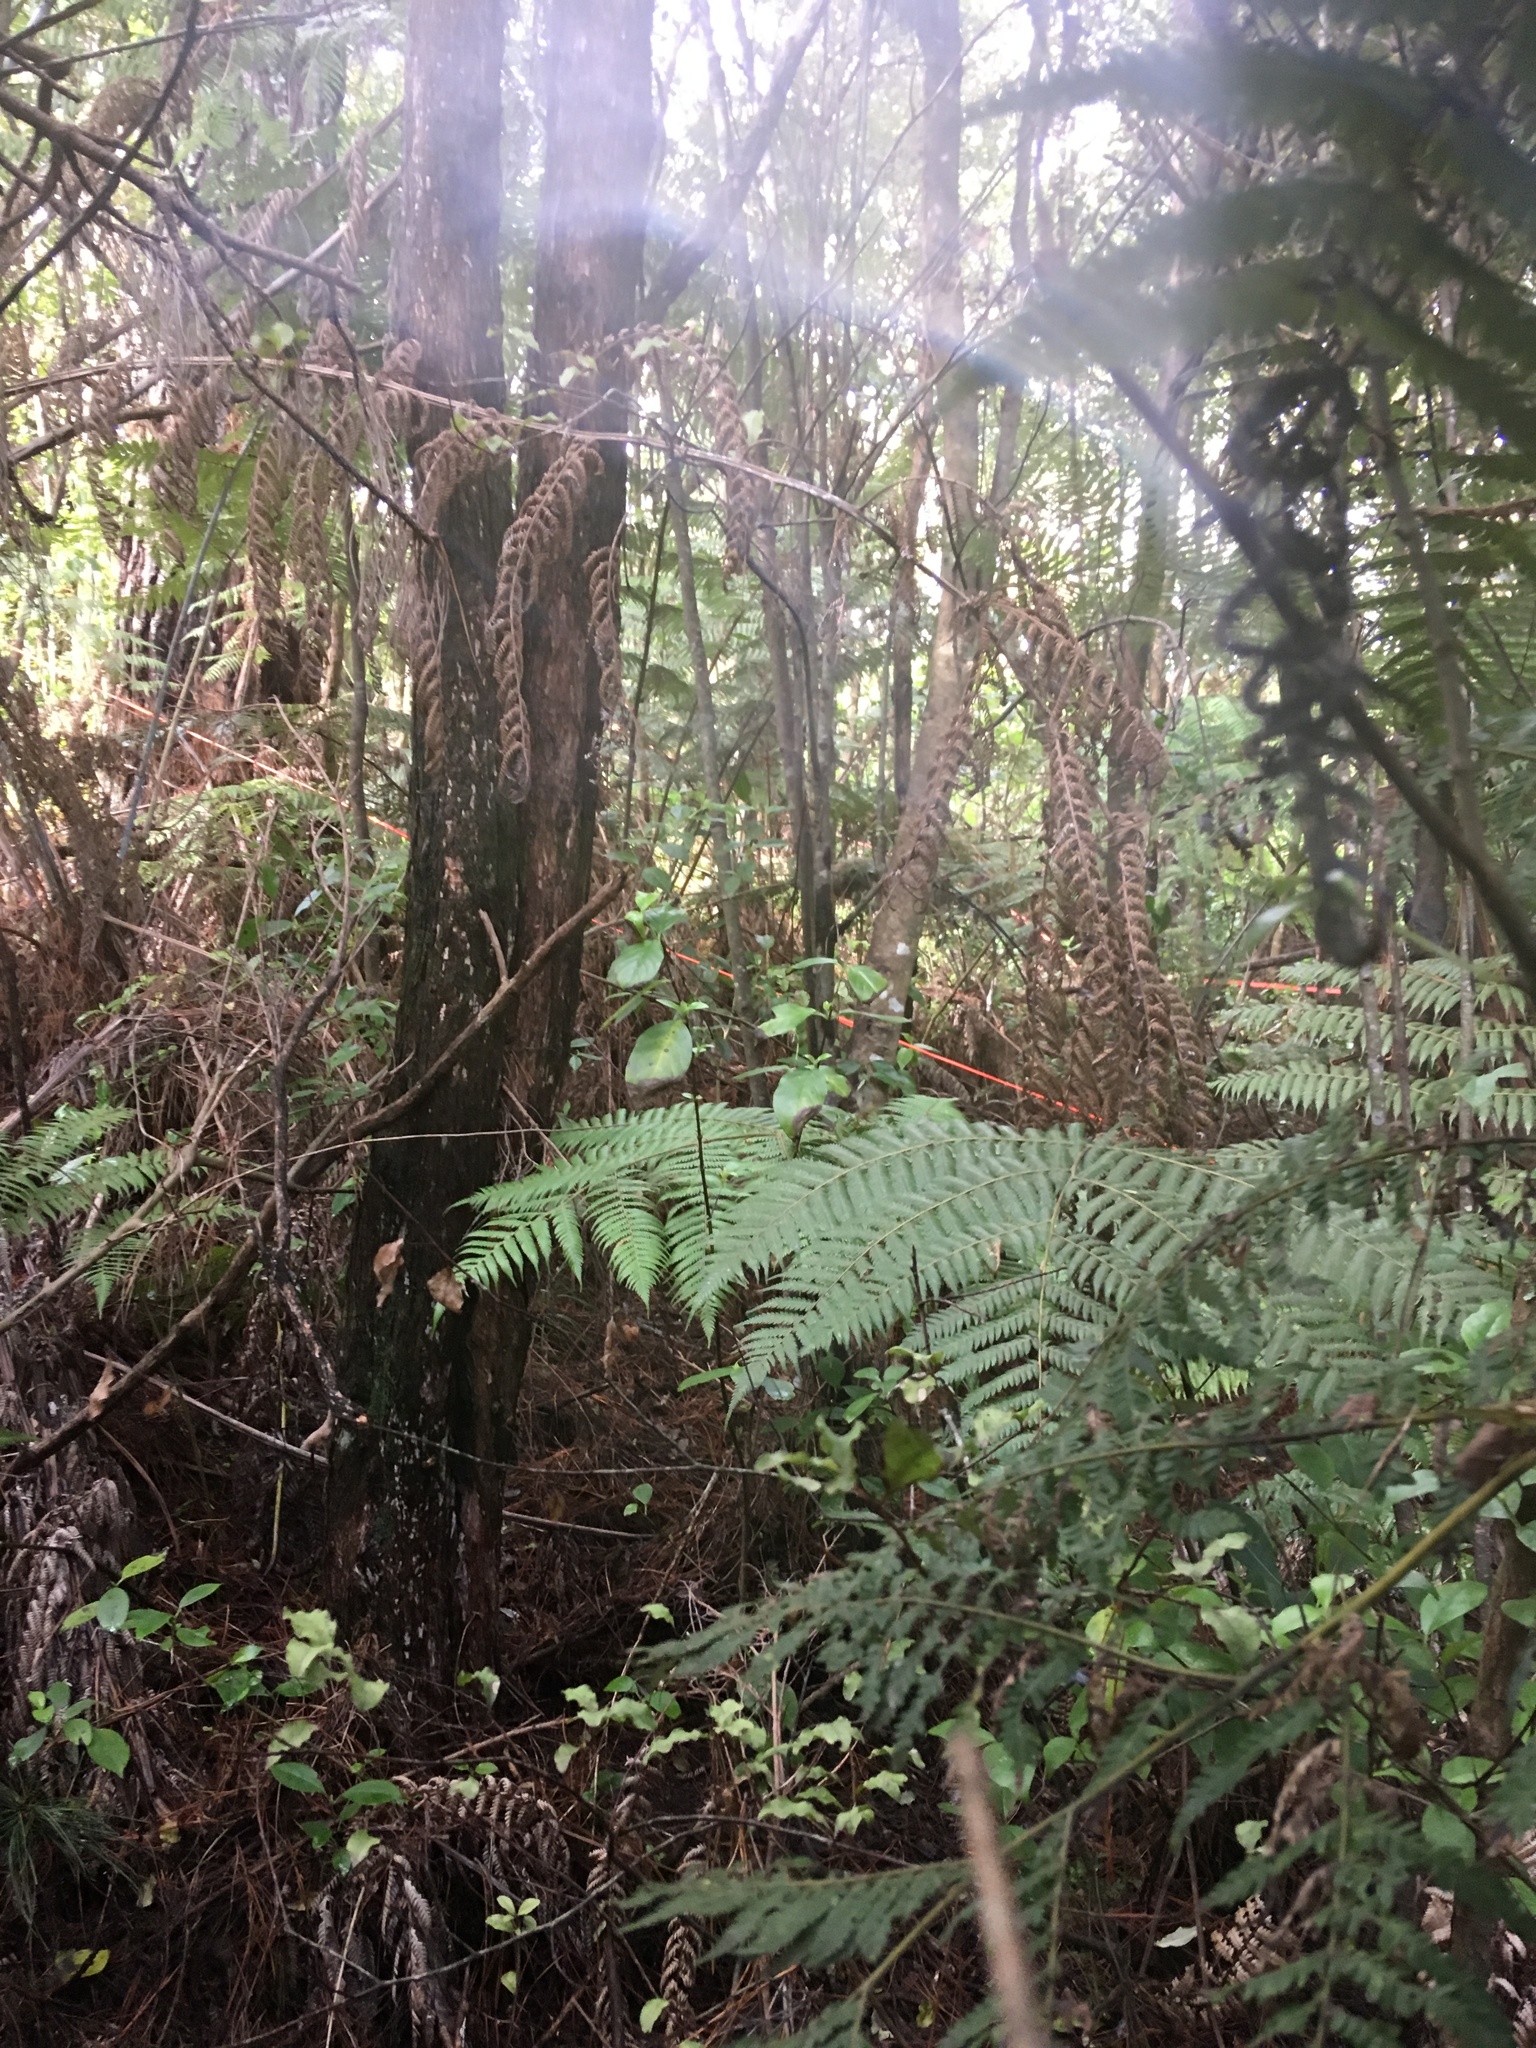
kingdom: Plantae
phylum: Tracheophyta
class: Magnoliopsida
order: Ericales
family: Primulaceae
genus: Myrsine
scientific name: Myrsine australis
